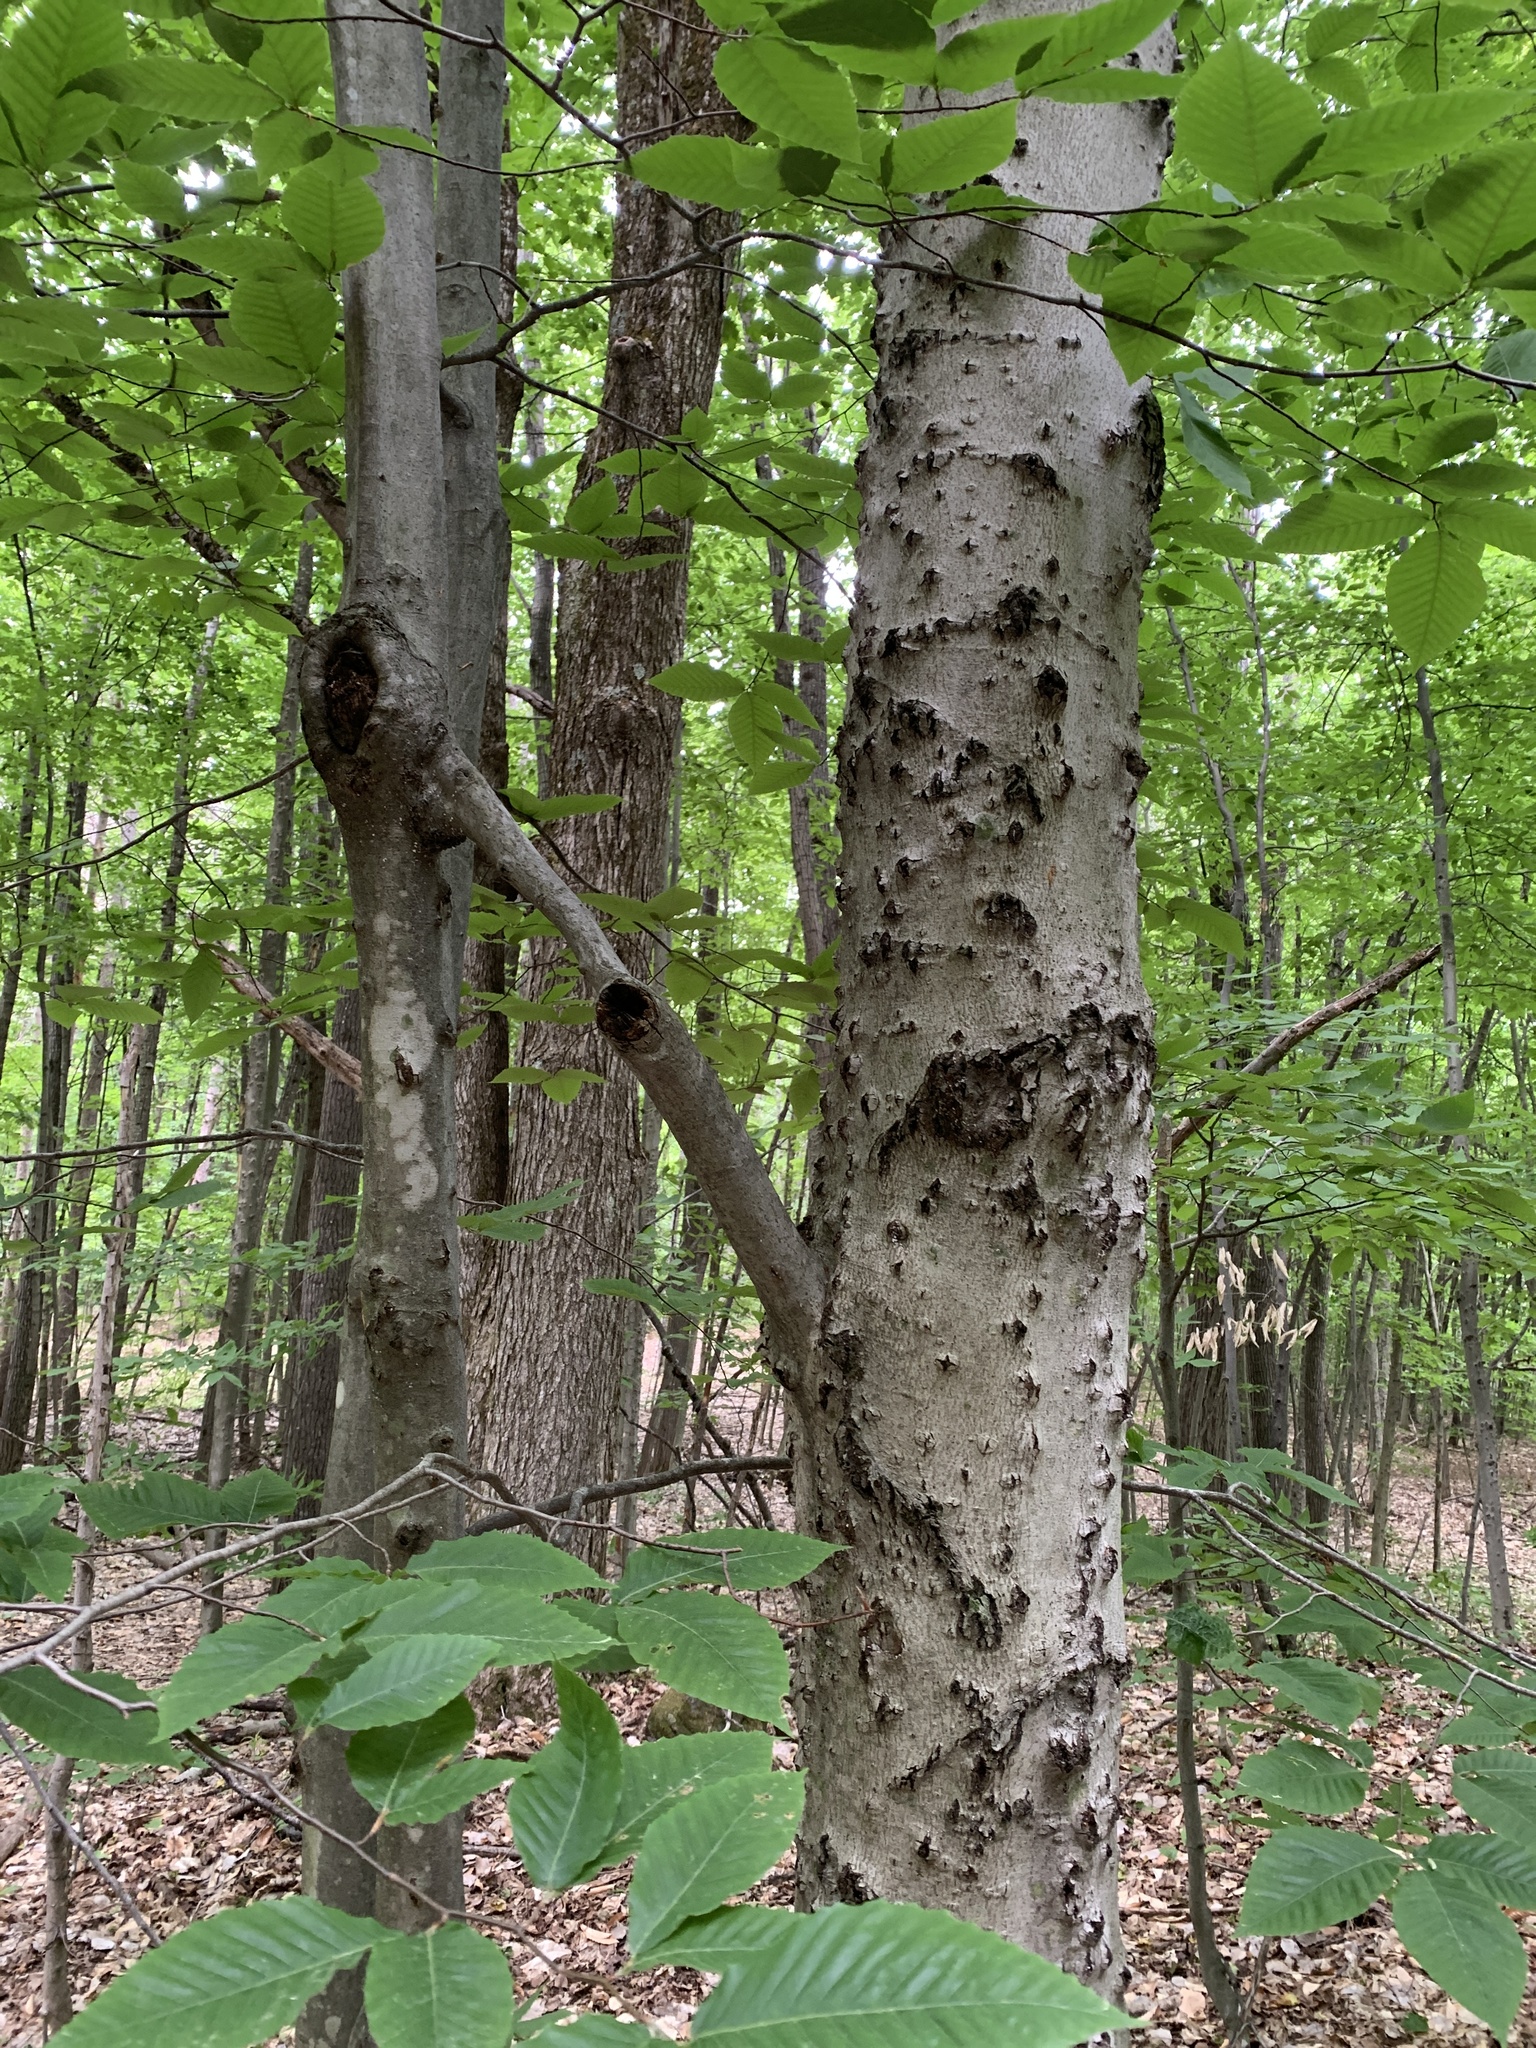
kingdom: Plantae
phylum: Tracheophyta
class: Magnoliopsida
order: Fagales
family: Fagaceae
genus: Fagus
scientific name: Fagus grandifolia
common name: American beech
